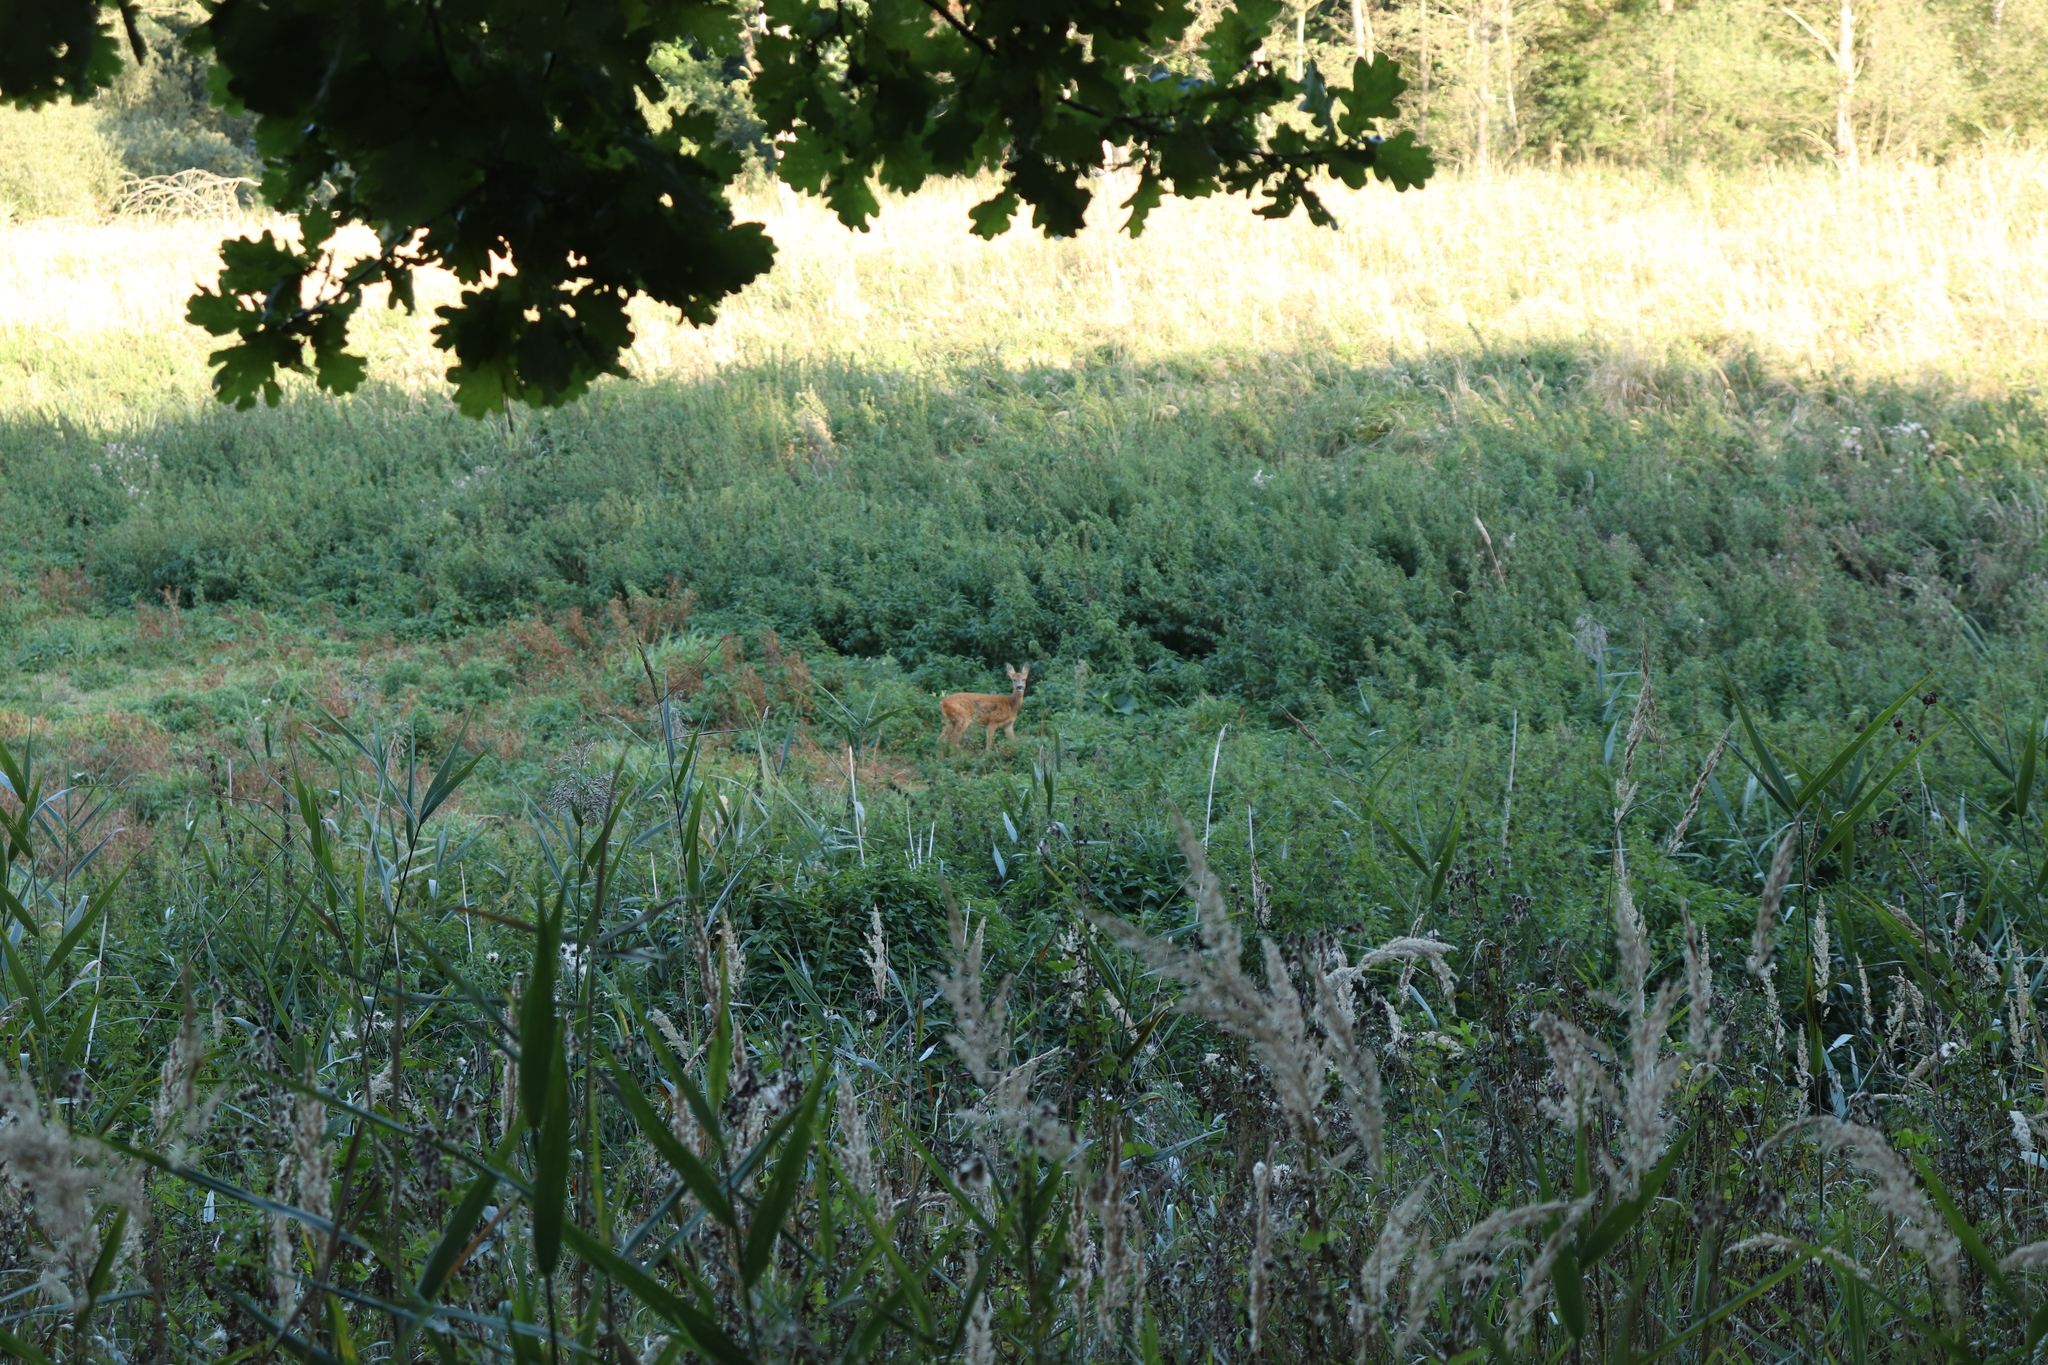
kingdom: Animalia
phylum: Chordata
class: Mammalia
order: Artiodactyla
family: Cervidae
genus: Capreolus
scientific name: Capreolus capreolus
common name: Western roe deer
